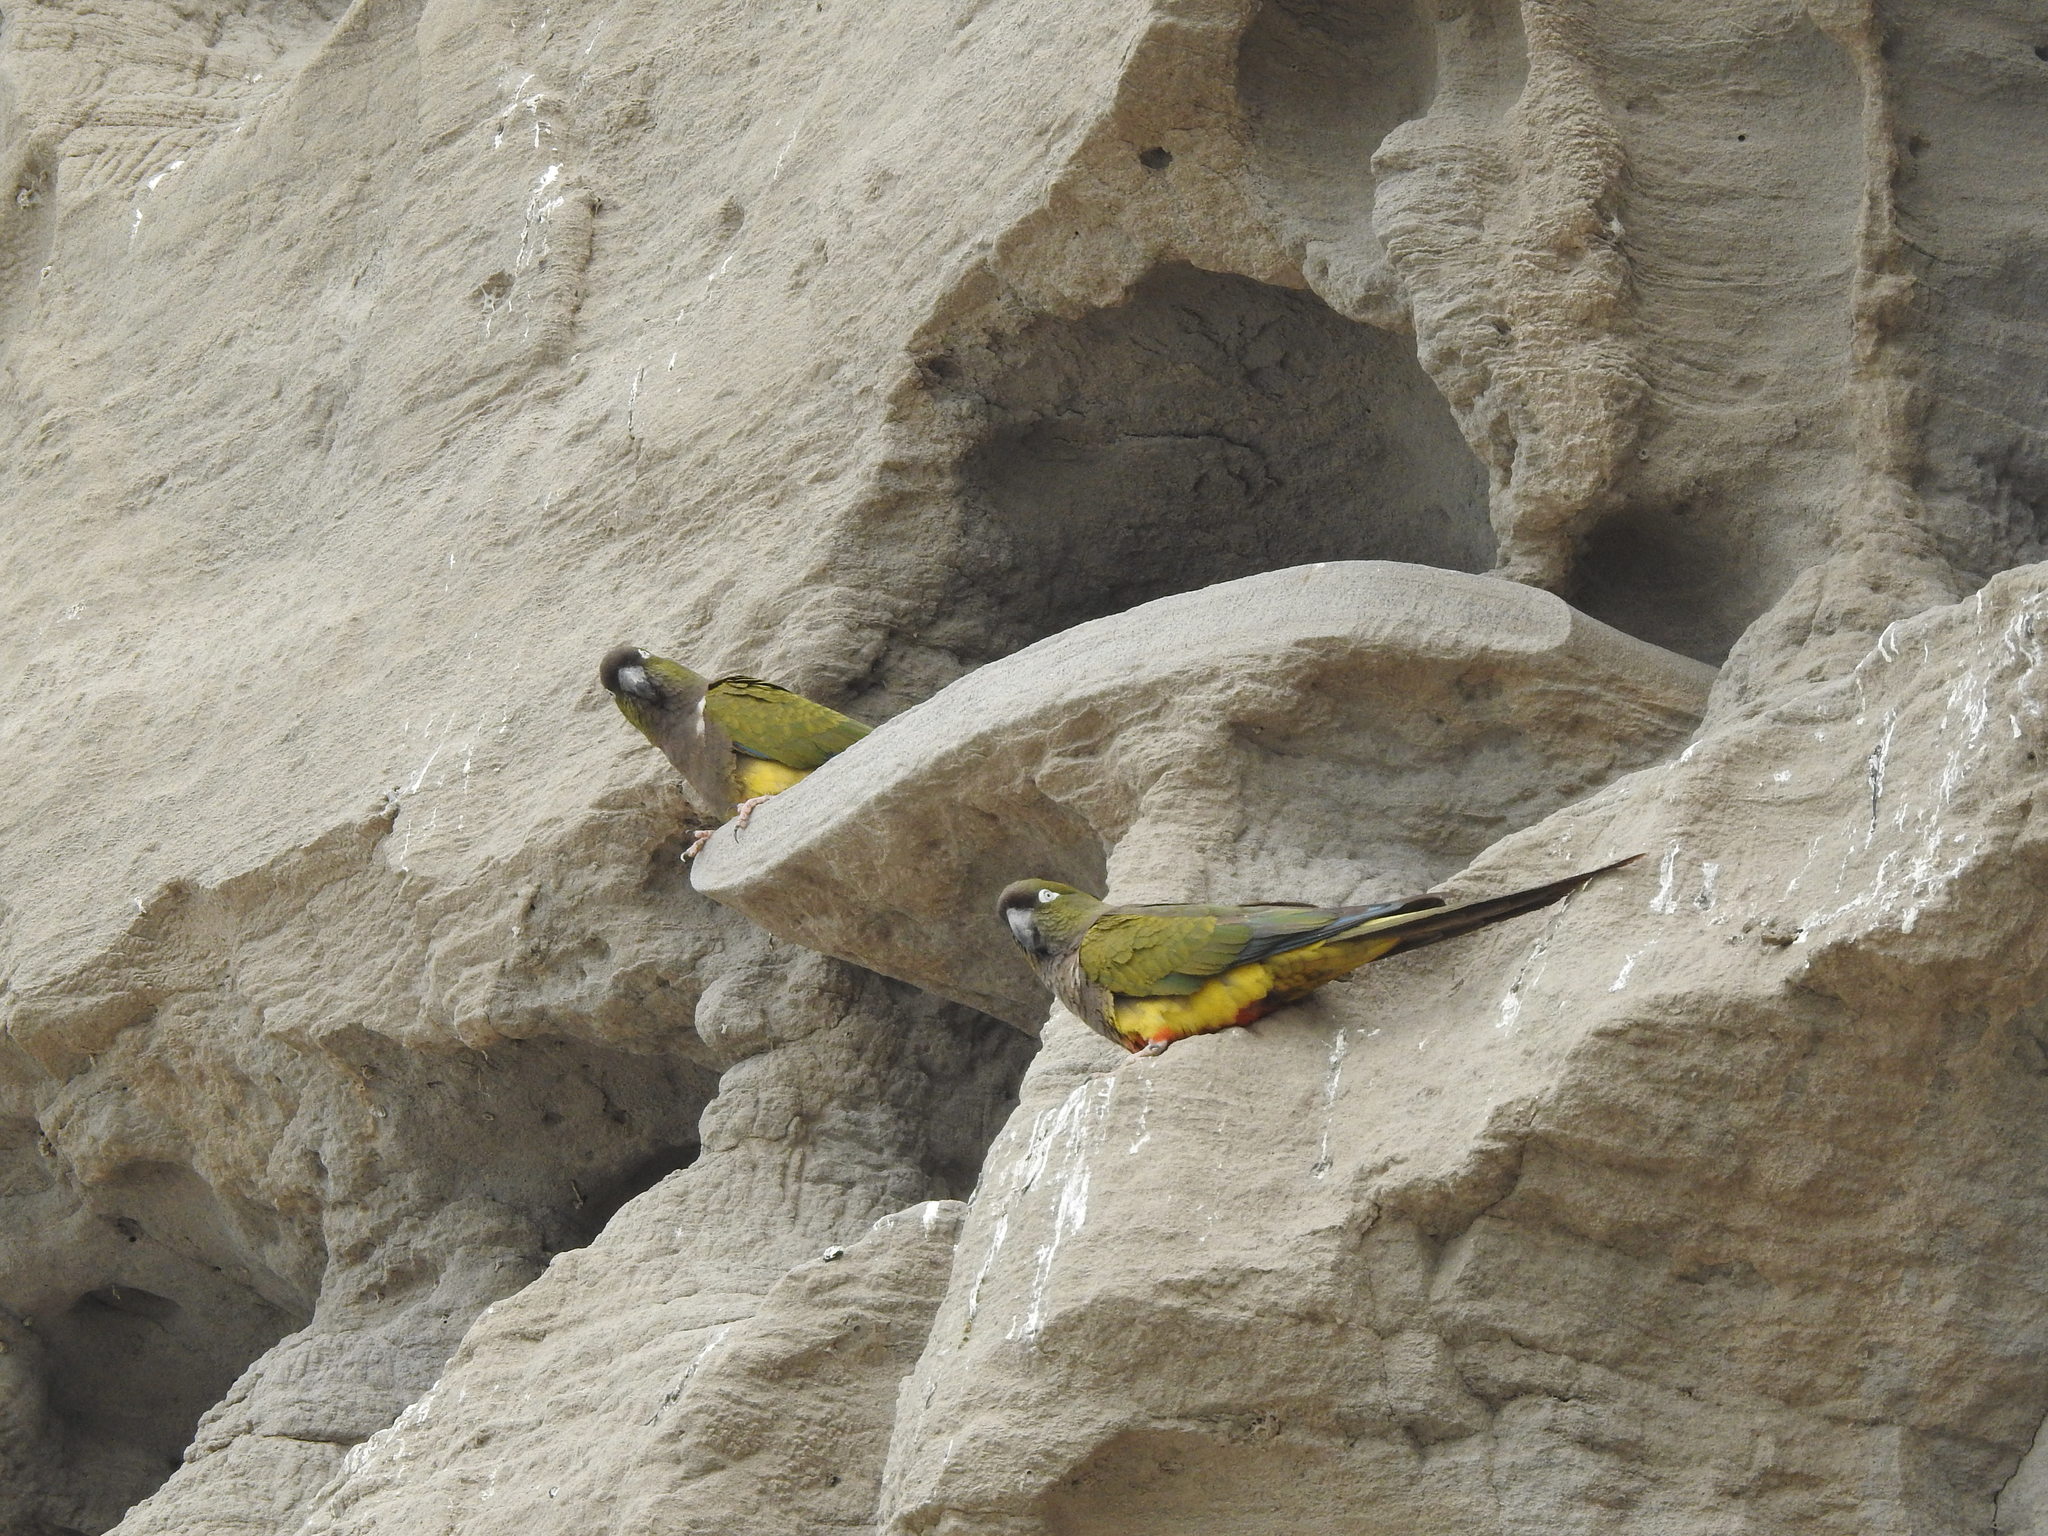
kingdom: Animalia
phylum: Chordata
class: Aves
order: Psittaciformes
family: Psittacidae
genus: Cyanoliseus
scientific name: Cyanoliseus patagonus
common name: Burrowing parrot
